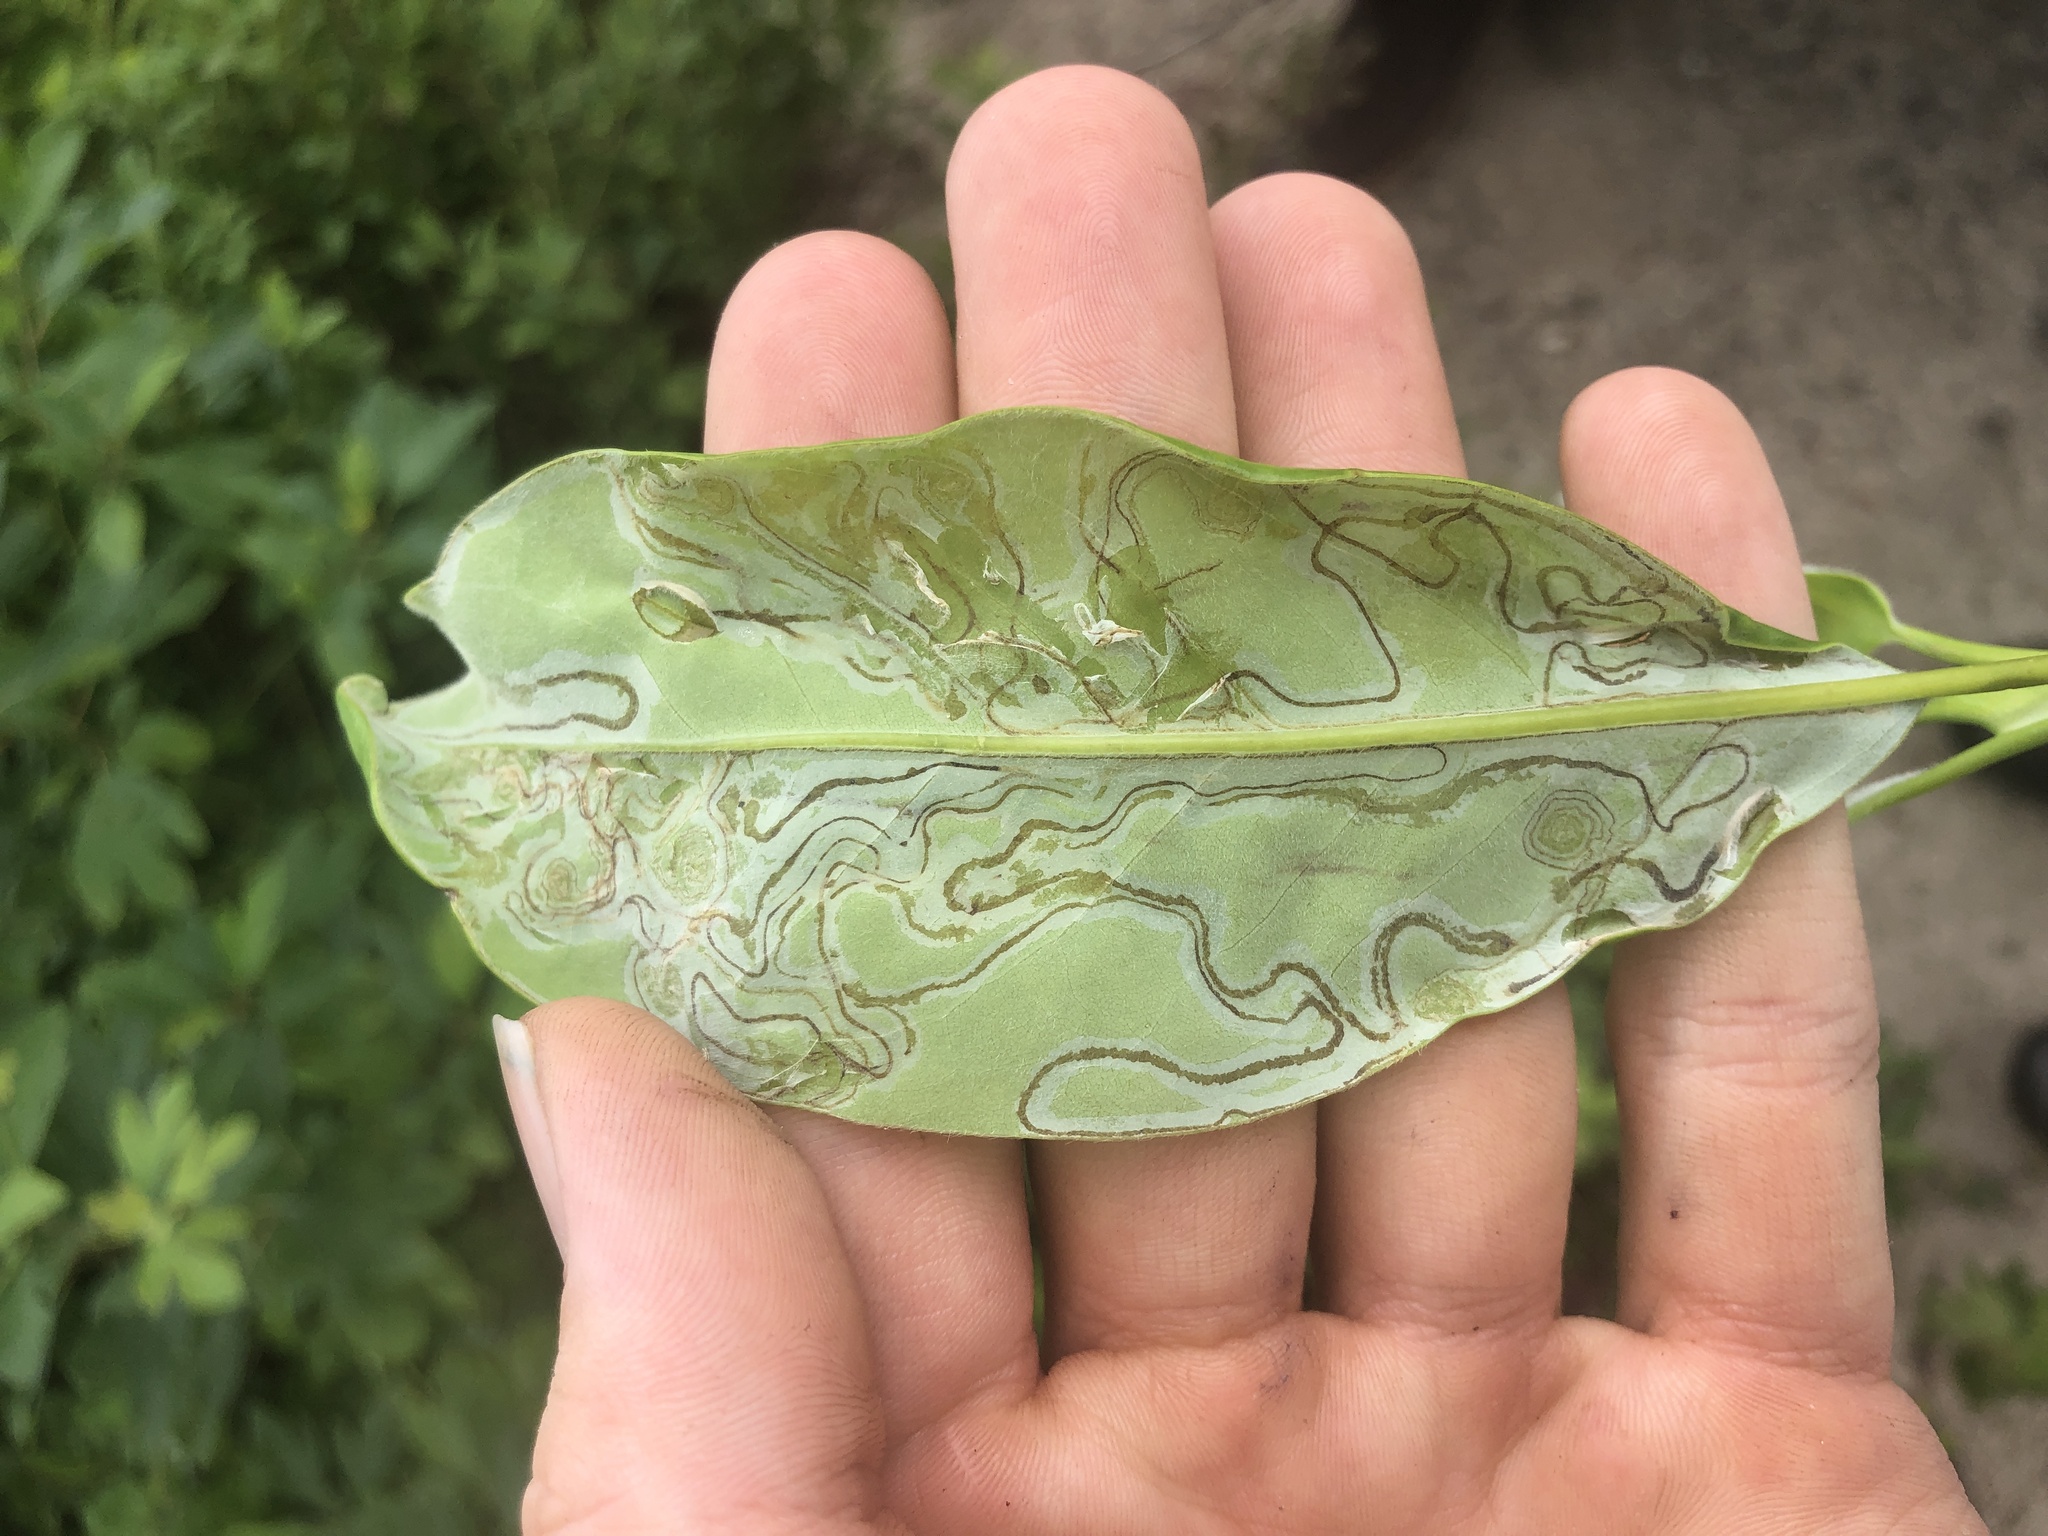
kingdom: Animalia
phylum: Arthropoda
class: Insecta
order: Lepidoptera
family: Gracillariidae
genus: Phyllocnistis
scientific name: Phyllocnistis liriodendronella
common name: Tulip tree leaf miner
